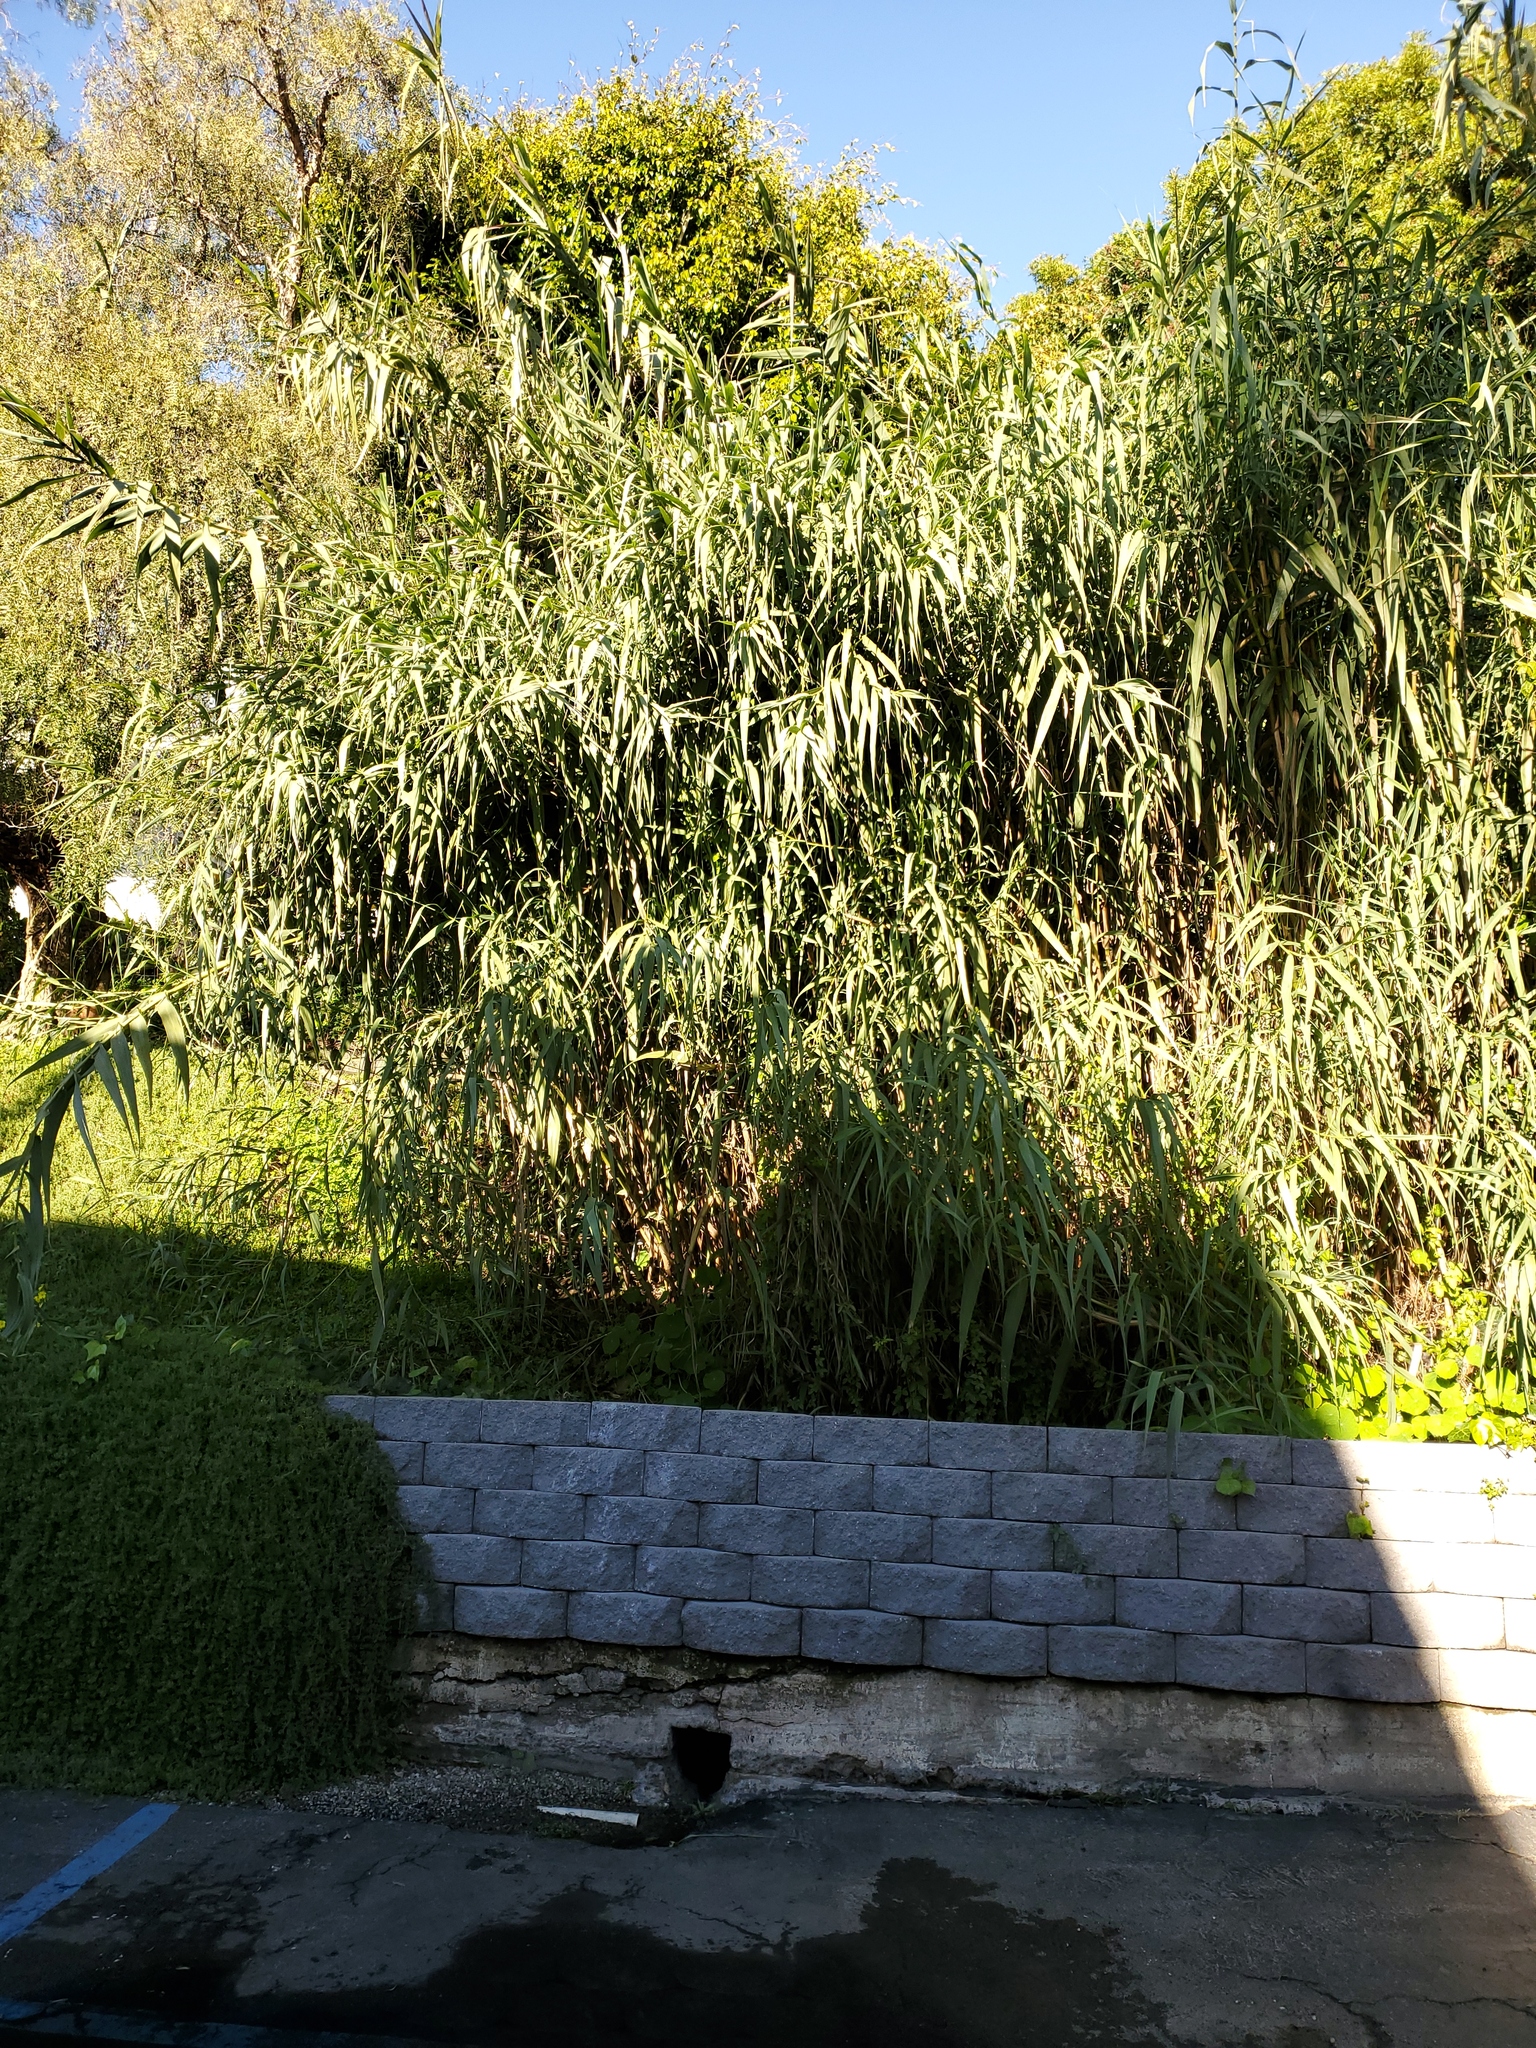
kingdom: Plantae
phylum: Tracheophyta
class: Liliopsida
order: Poales
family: Poaceae
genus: Arundo
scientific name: Arundo donax
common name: Giant reed
